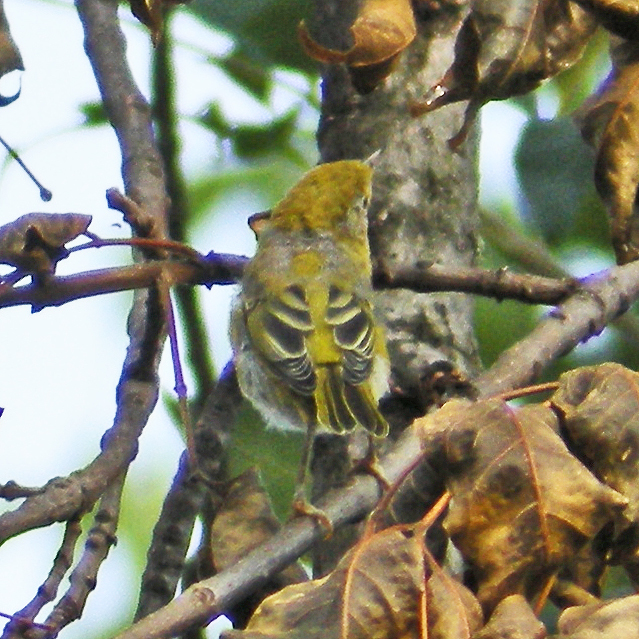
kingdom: Animalia
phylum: Chordata
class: Aves
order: Passeriformes
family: Parulidae
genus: Setophaga
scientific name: Setophaga petechia
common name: Yellow warbler
